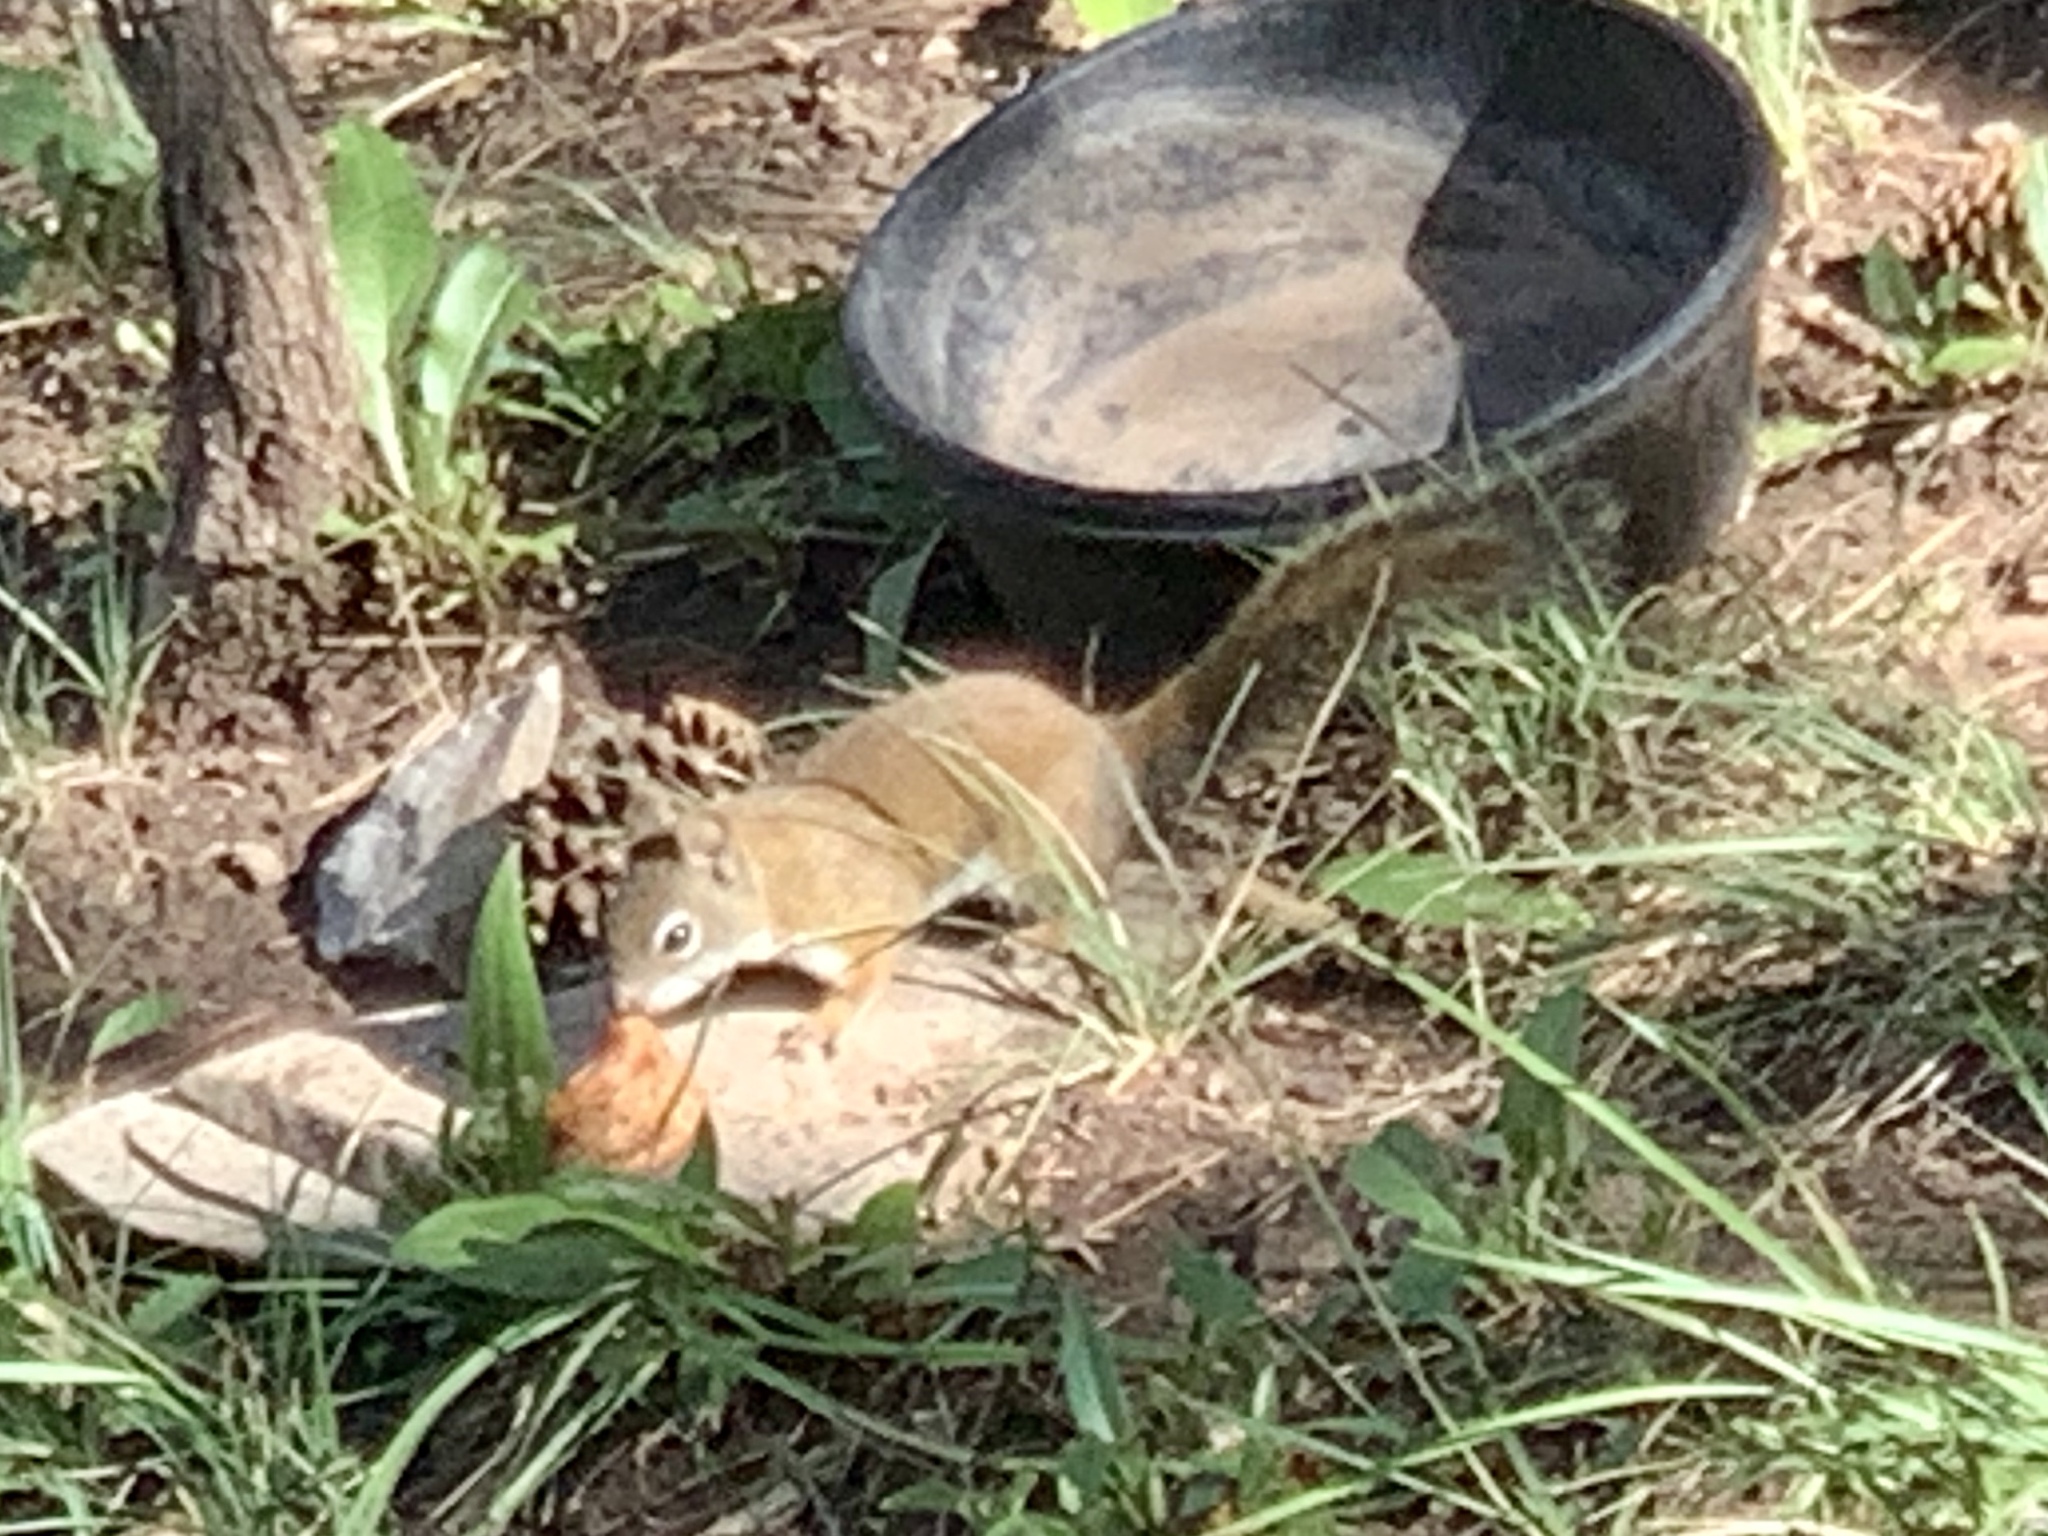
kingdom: Animalia
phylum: Chordata
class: Mammalia
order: Rodentia
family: Sciuridae
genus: Tamiasciurus
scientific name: Tamiasciurus hudsonicus
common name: Red squirrel
